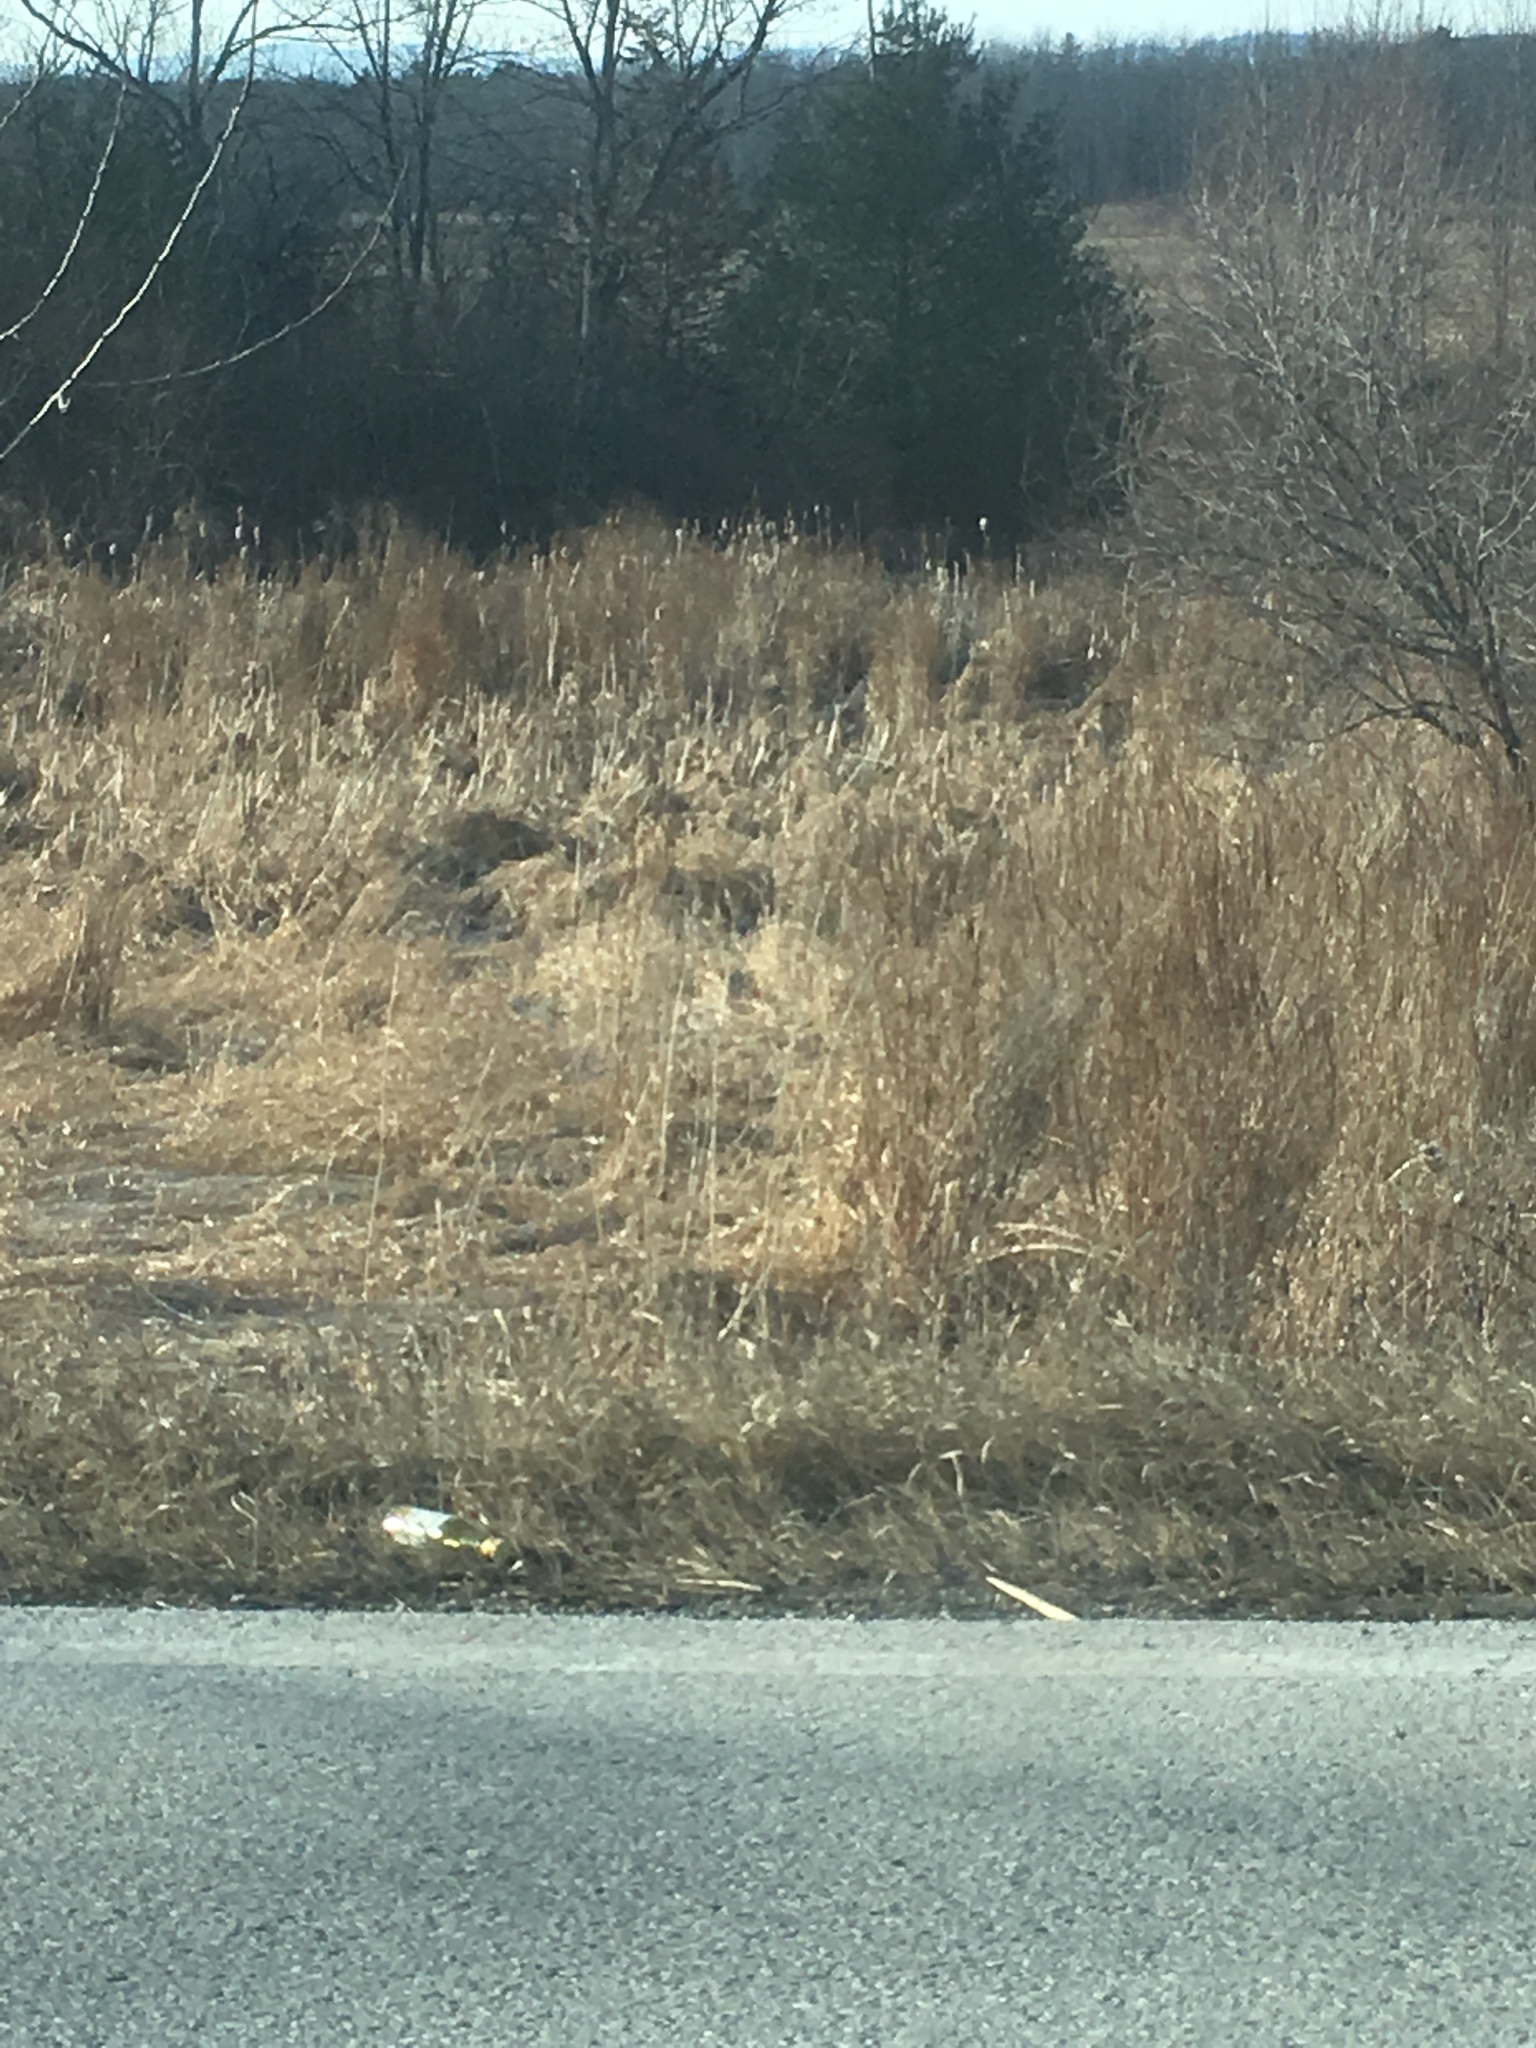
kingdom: Plantae
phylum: Tracheophyta
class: Liliopsida
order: Poales
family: Typhaceae
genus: Typha
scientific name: Typha
